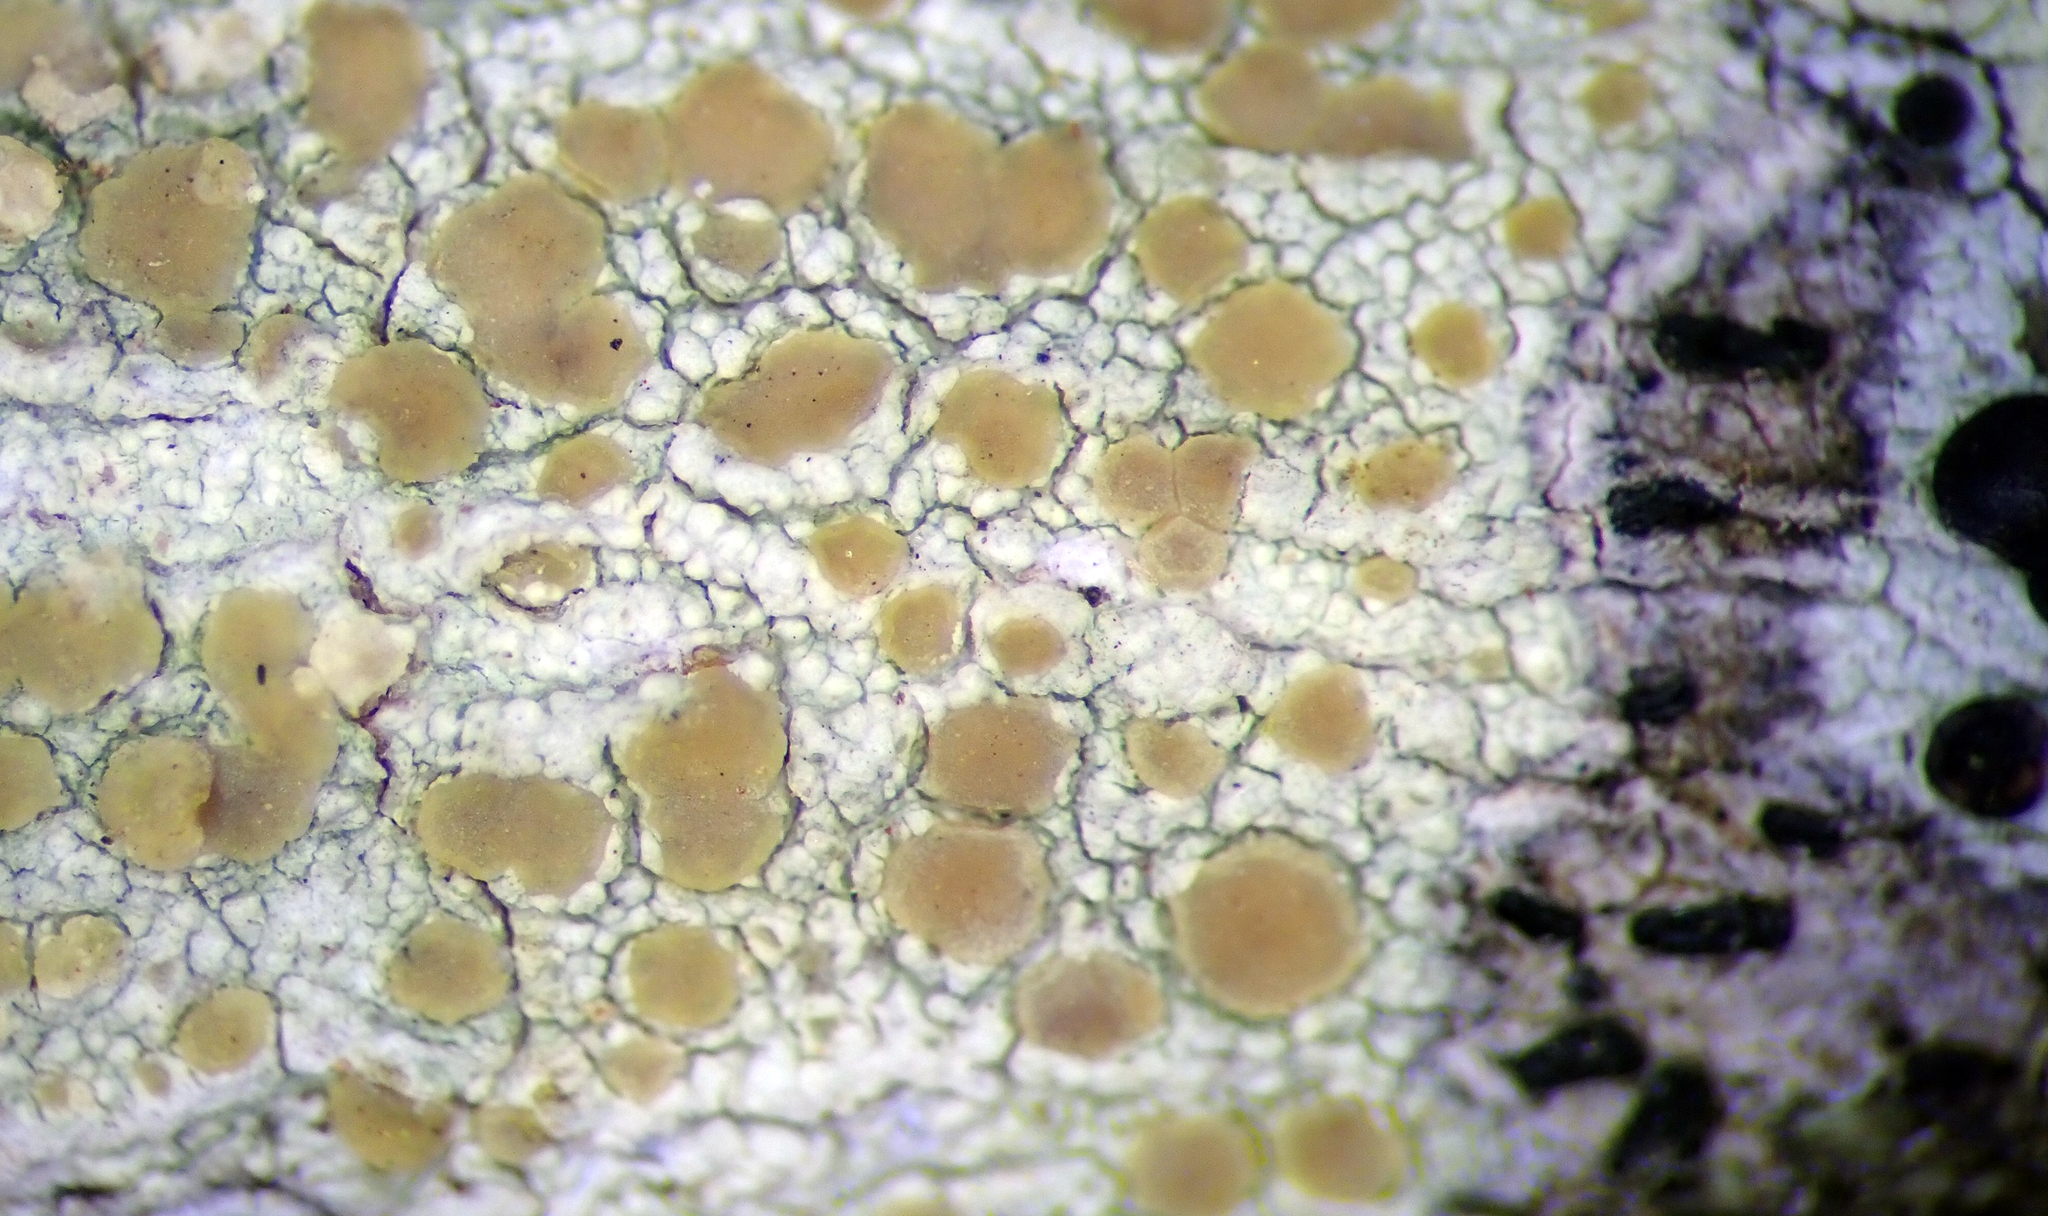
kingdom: Fungi
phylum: Ascomycota
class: Lecanoromycetes
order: Lecanorales
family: Lecanoraceae
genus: Glaucomaria
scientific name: Glaucomaria carpinea
